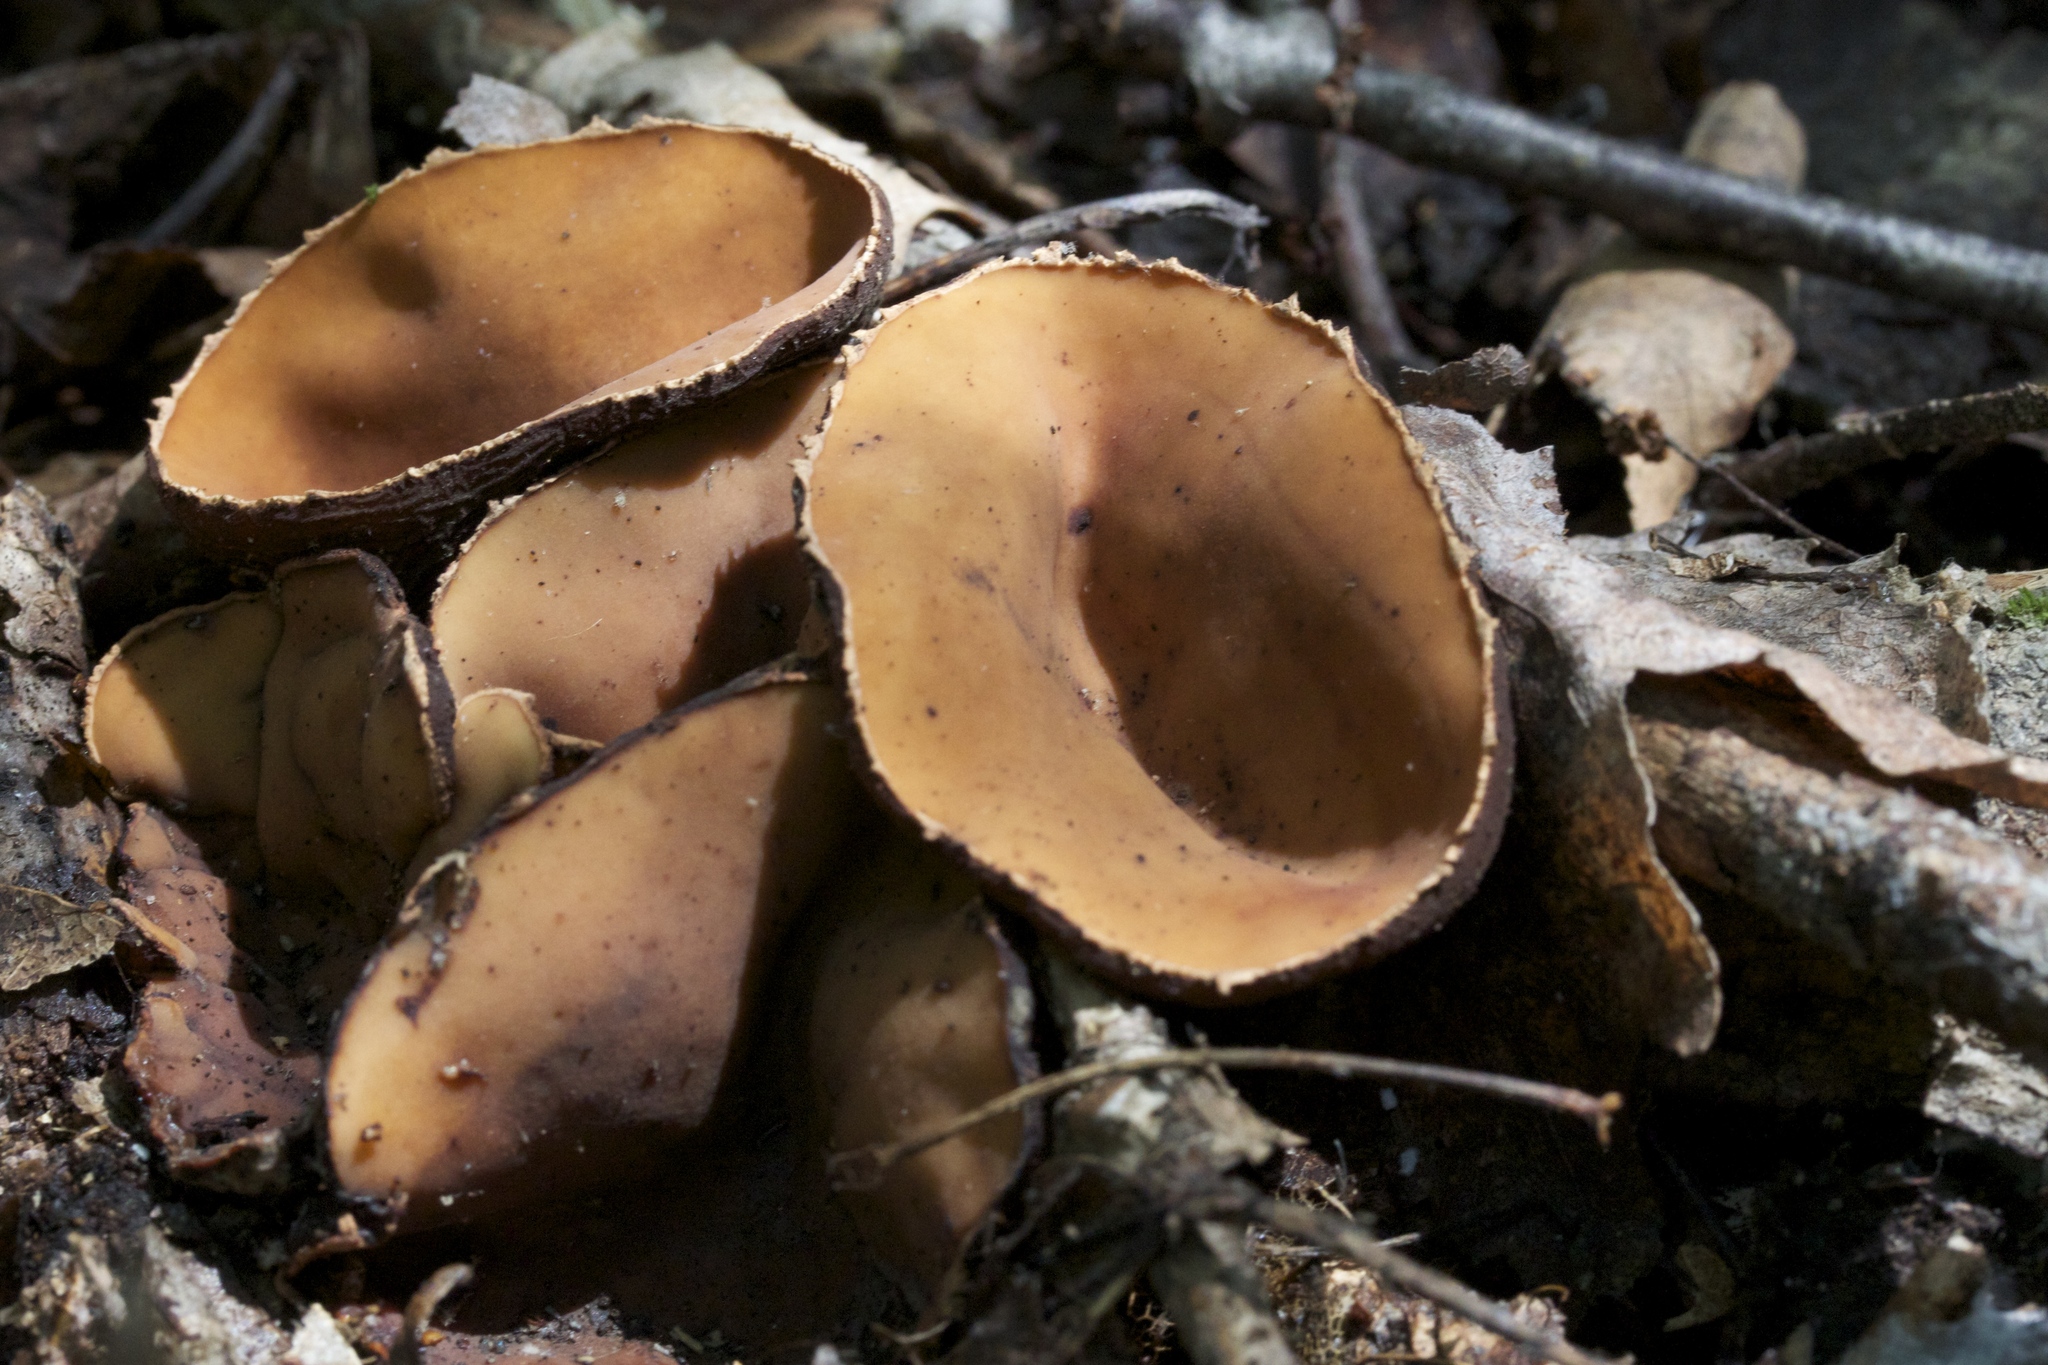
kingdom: Fungi
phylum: Ascomycota
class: Pezizomycetes
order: Pezizales
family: Sarcosomataceae
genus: Galiella
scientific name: Galiella rufa
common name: Hairy rubber cup
